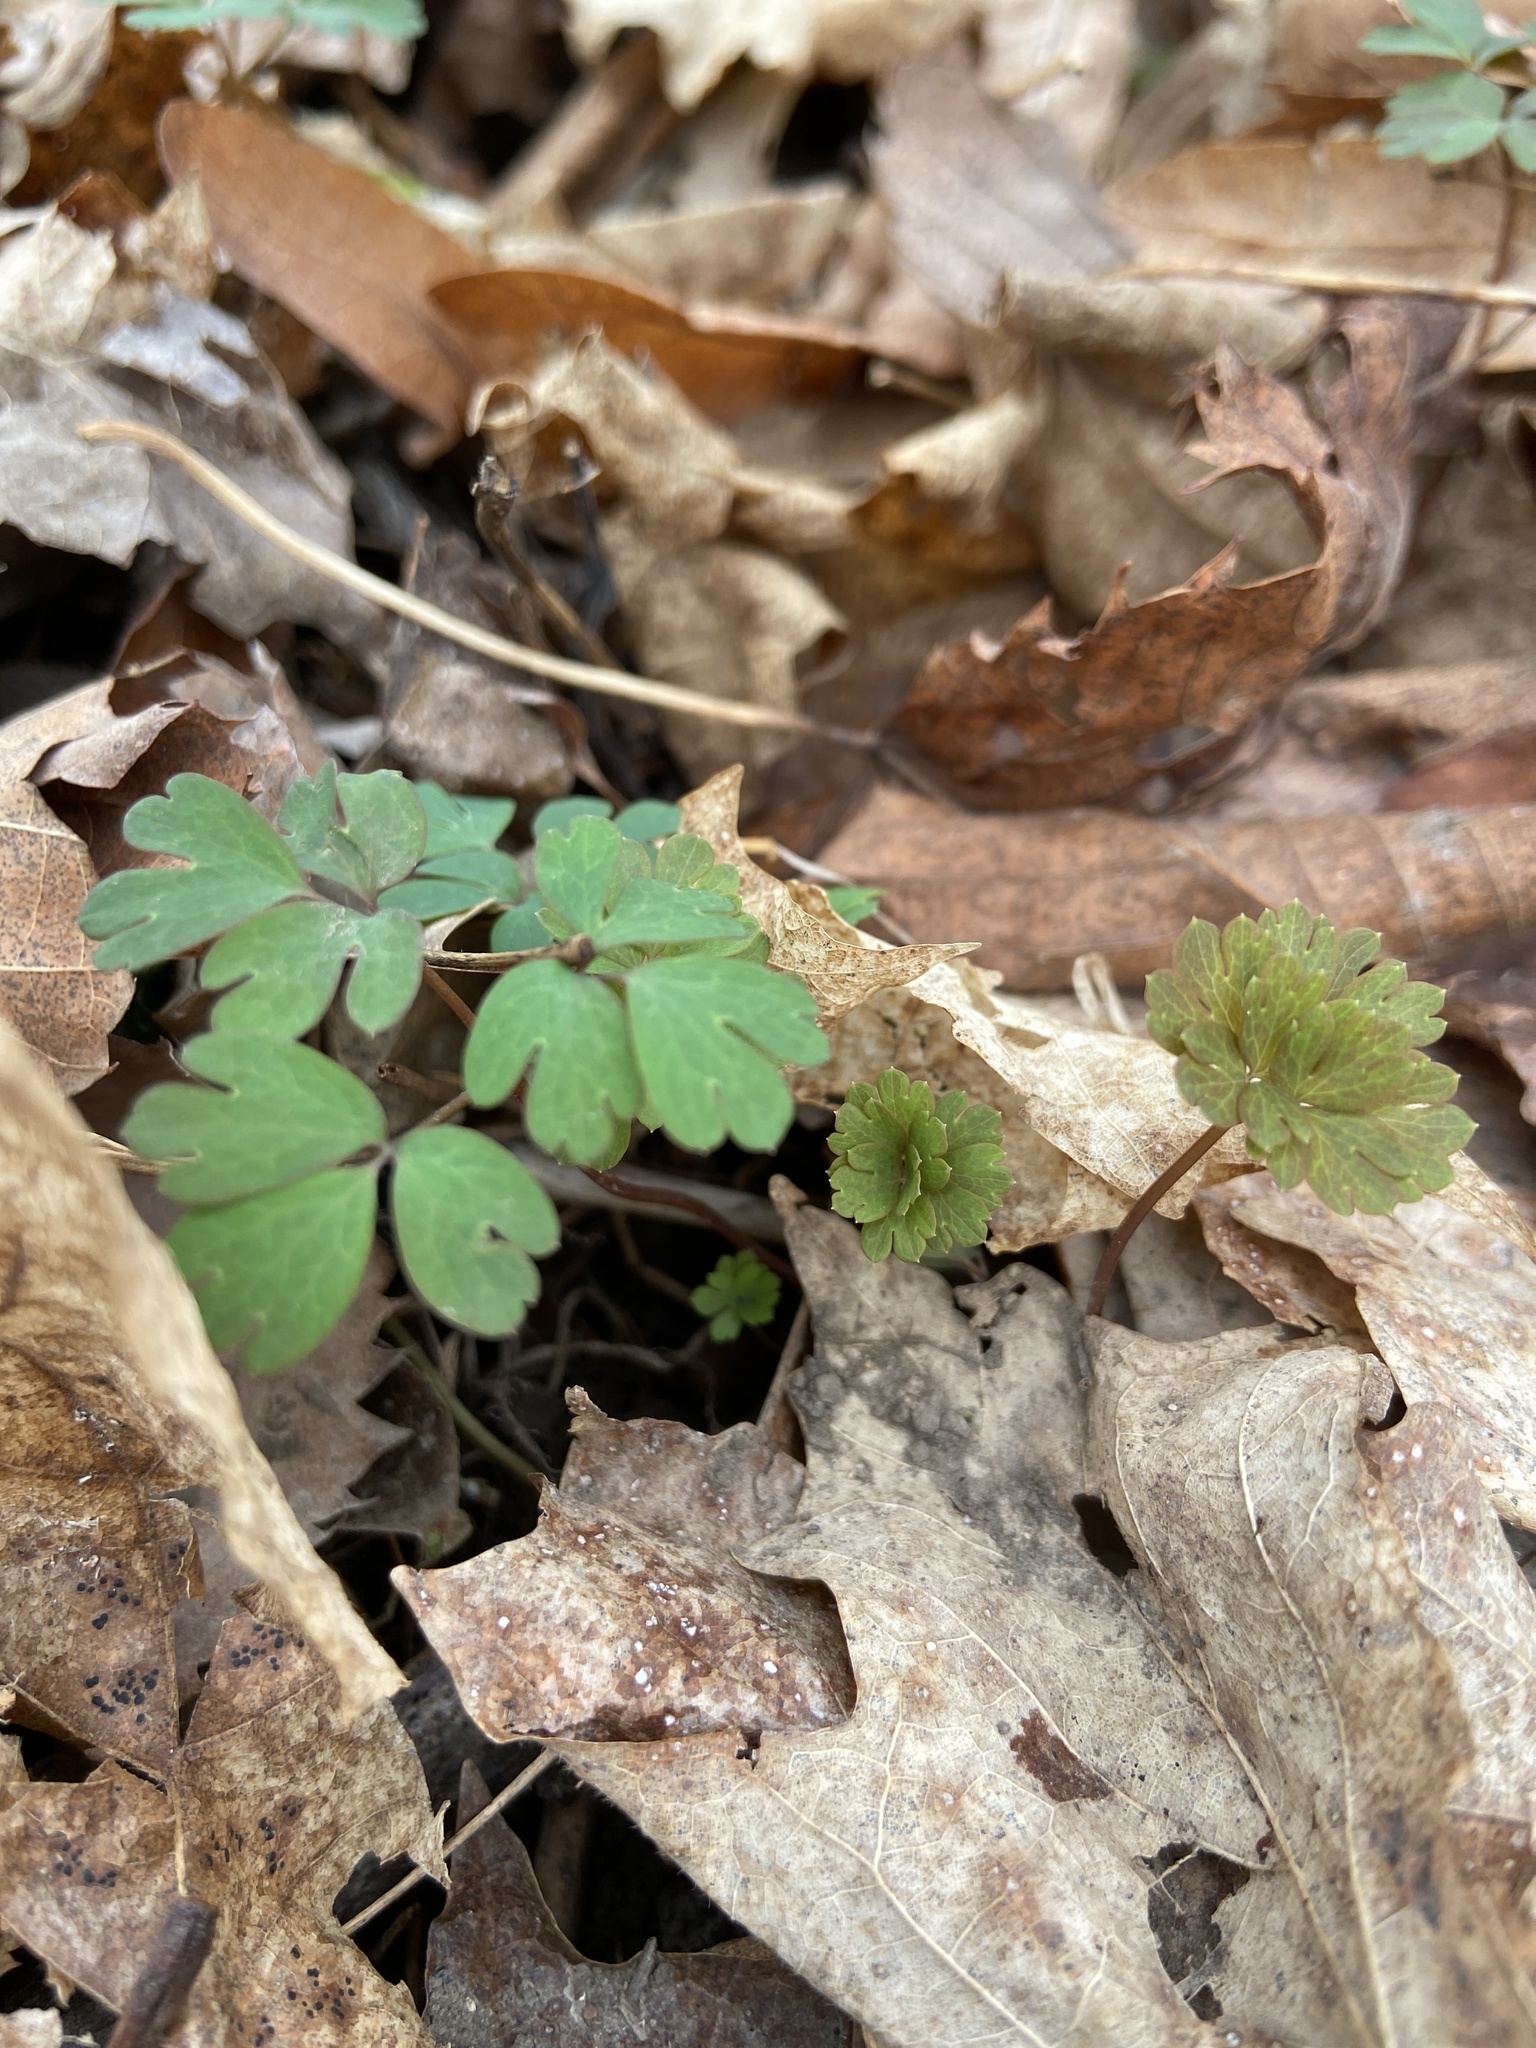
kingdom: Plantae
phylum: Tracheophyta
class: Magnoliopsida
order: Ranunculales
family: Ranunculaceae
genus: Enemion
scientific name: Enemion biternatum
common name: Eastern false rue-anemone
